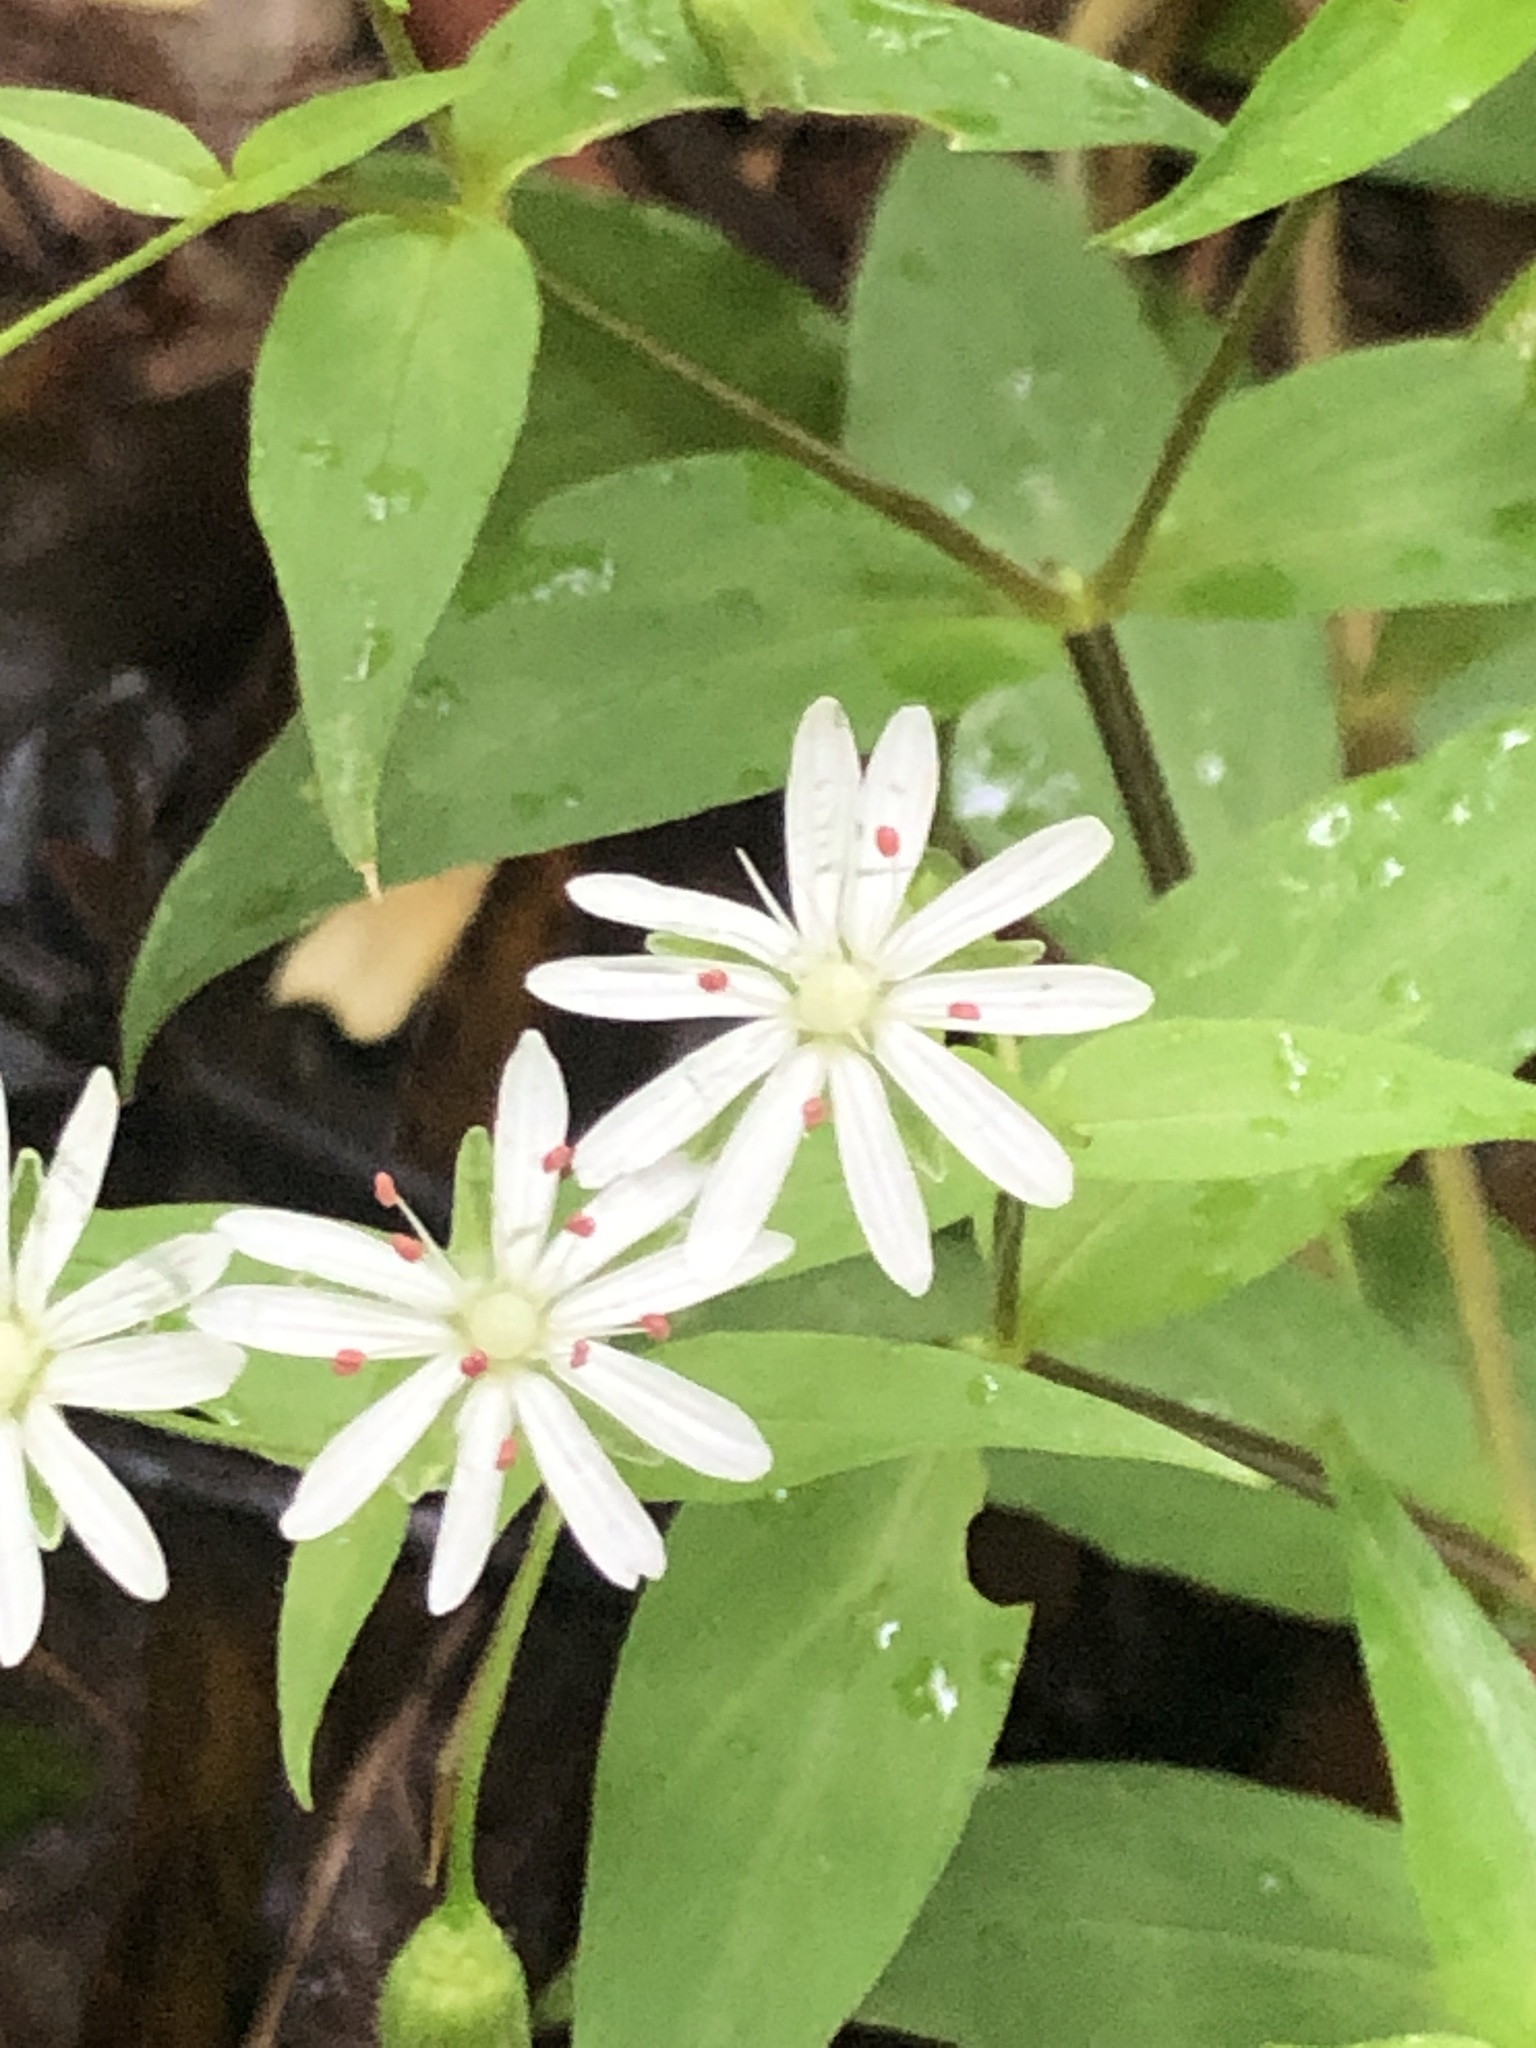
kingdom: Plantae
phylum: Tracheophyta
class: Magnoliopsida
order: Caryophyllales
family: Caryophyllaceae
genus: Stellaria
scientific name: Stellaria pubera
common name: Star chickweed
